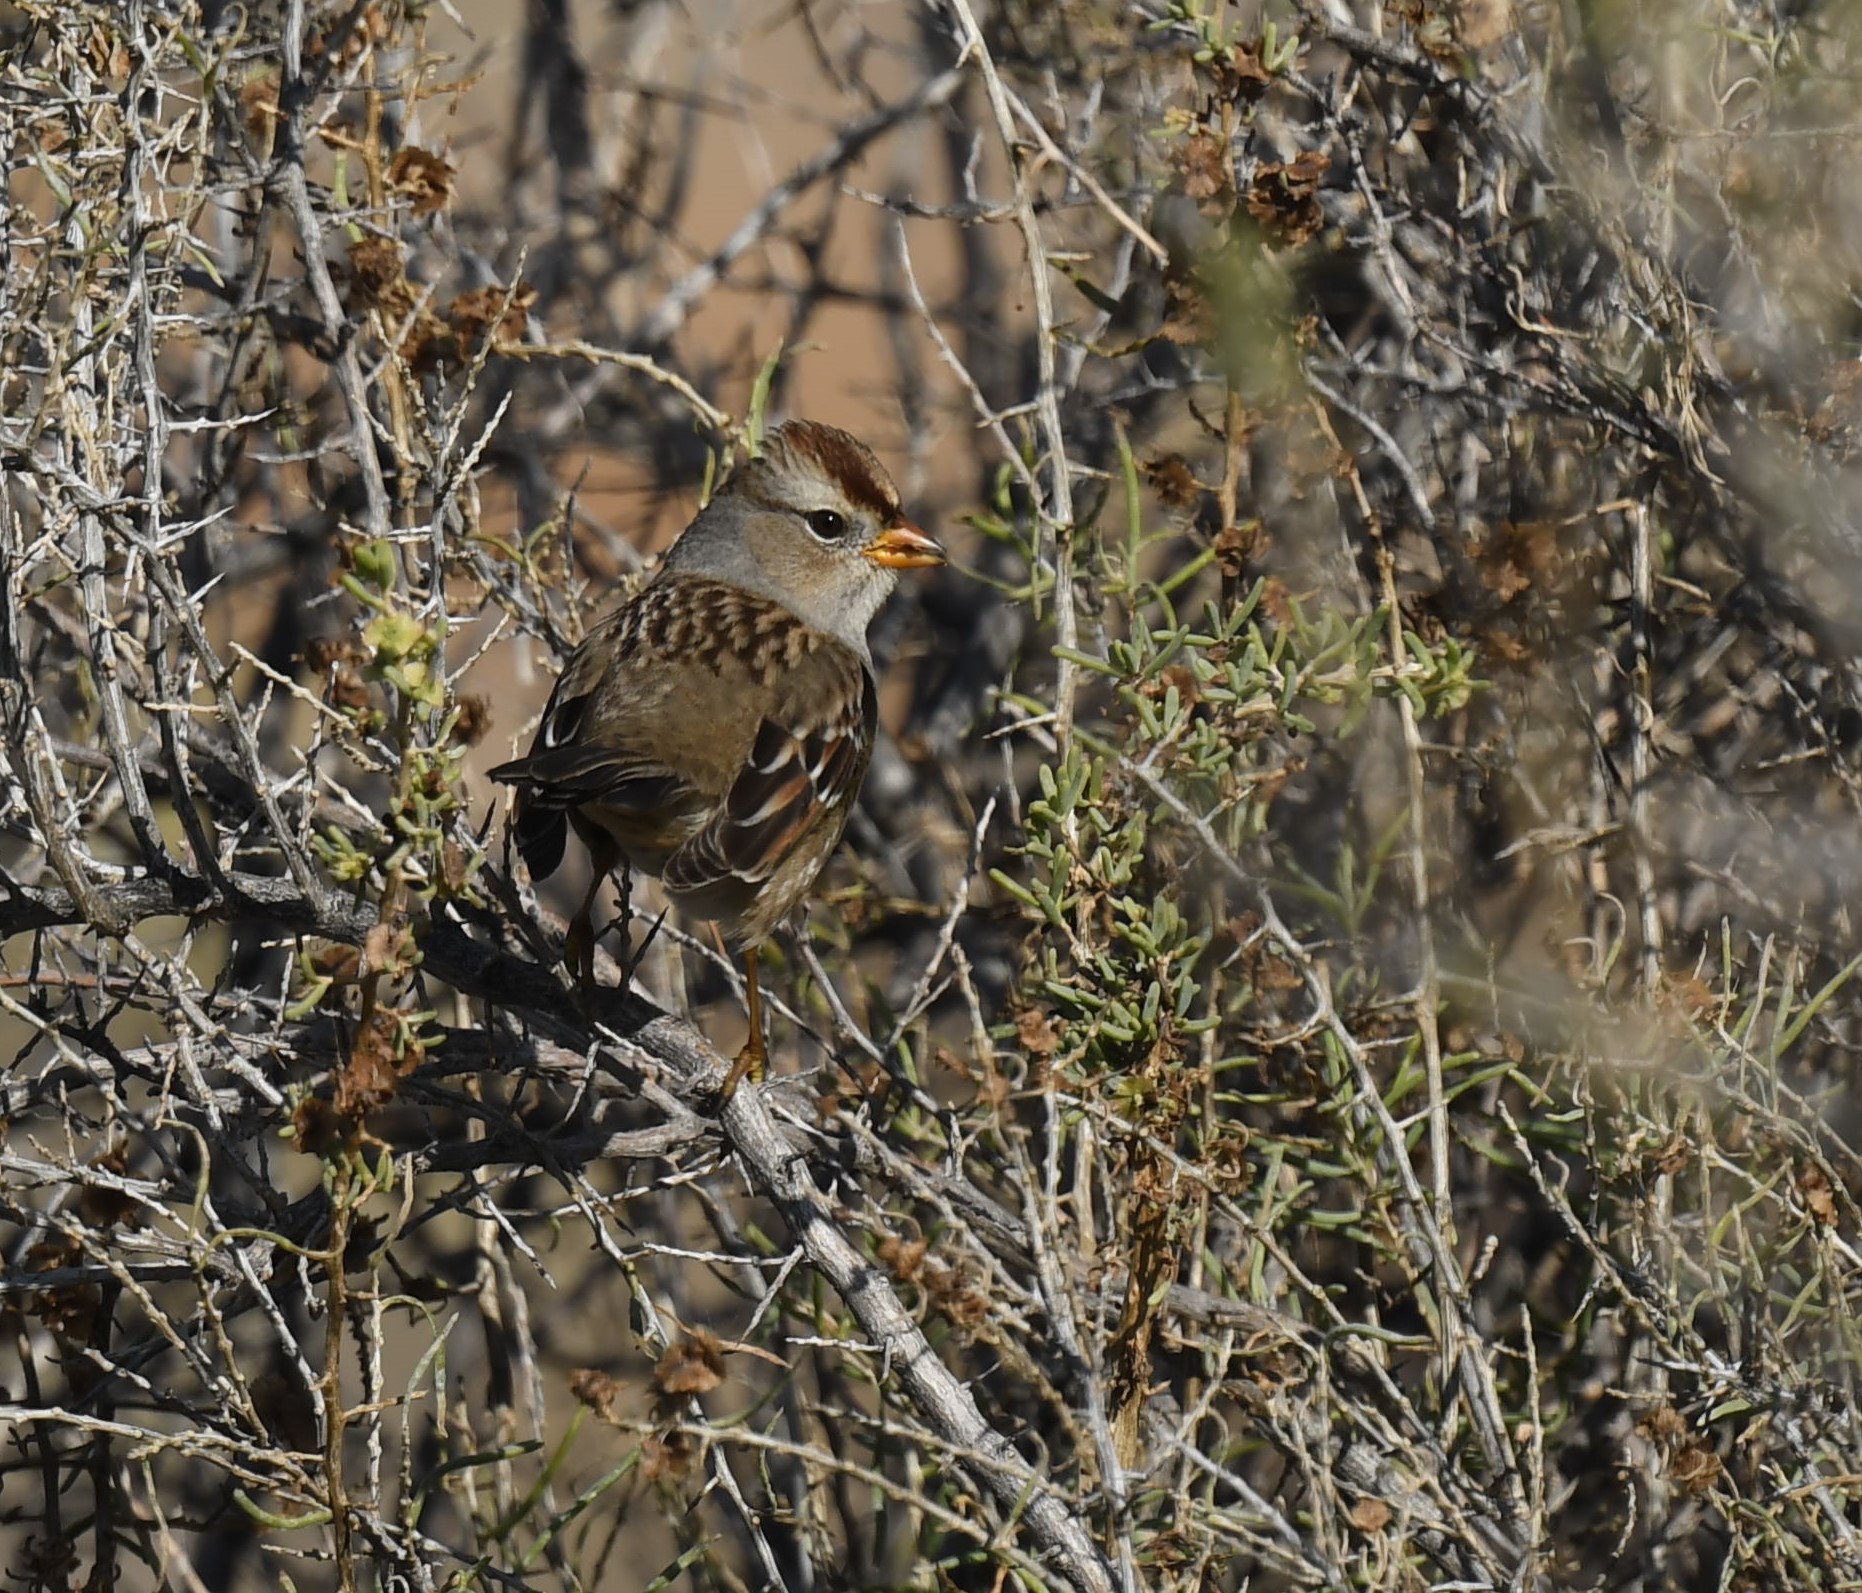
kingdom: Animalia
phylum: Chordata
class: Aves
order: Passeriformes
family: Passerellidae
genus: Zonotrichia
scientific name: Zonotrichia leucophrys
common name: White-crowned sparrow
